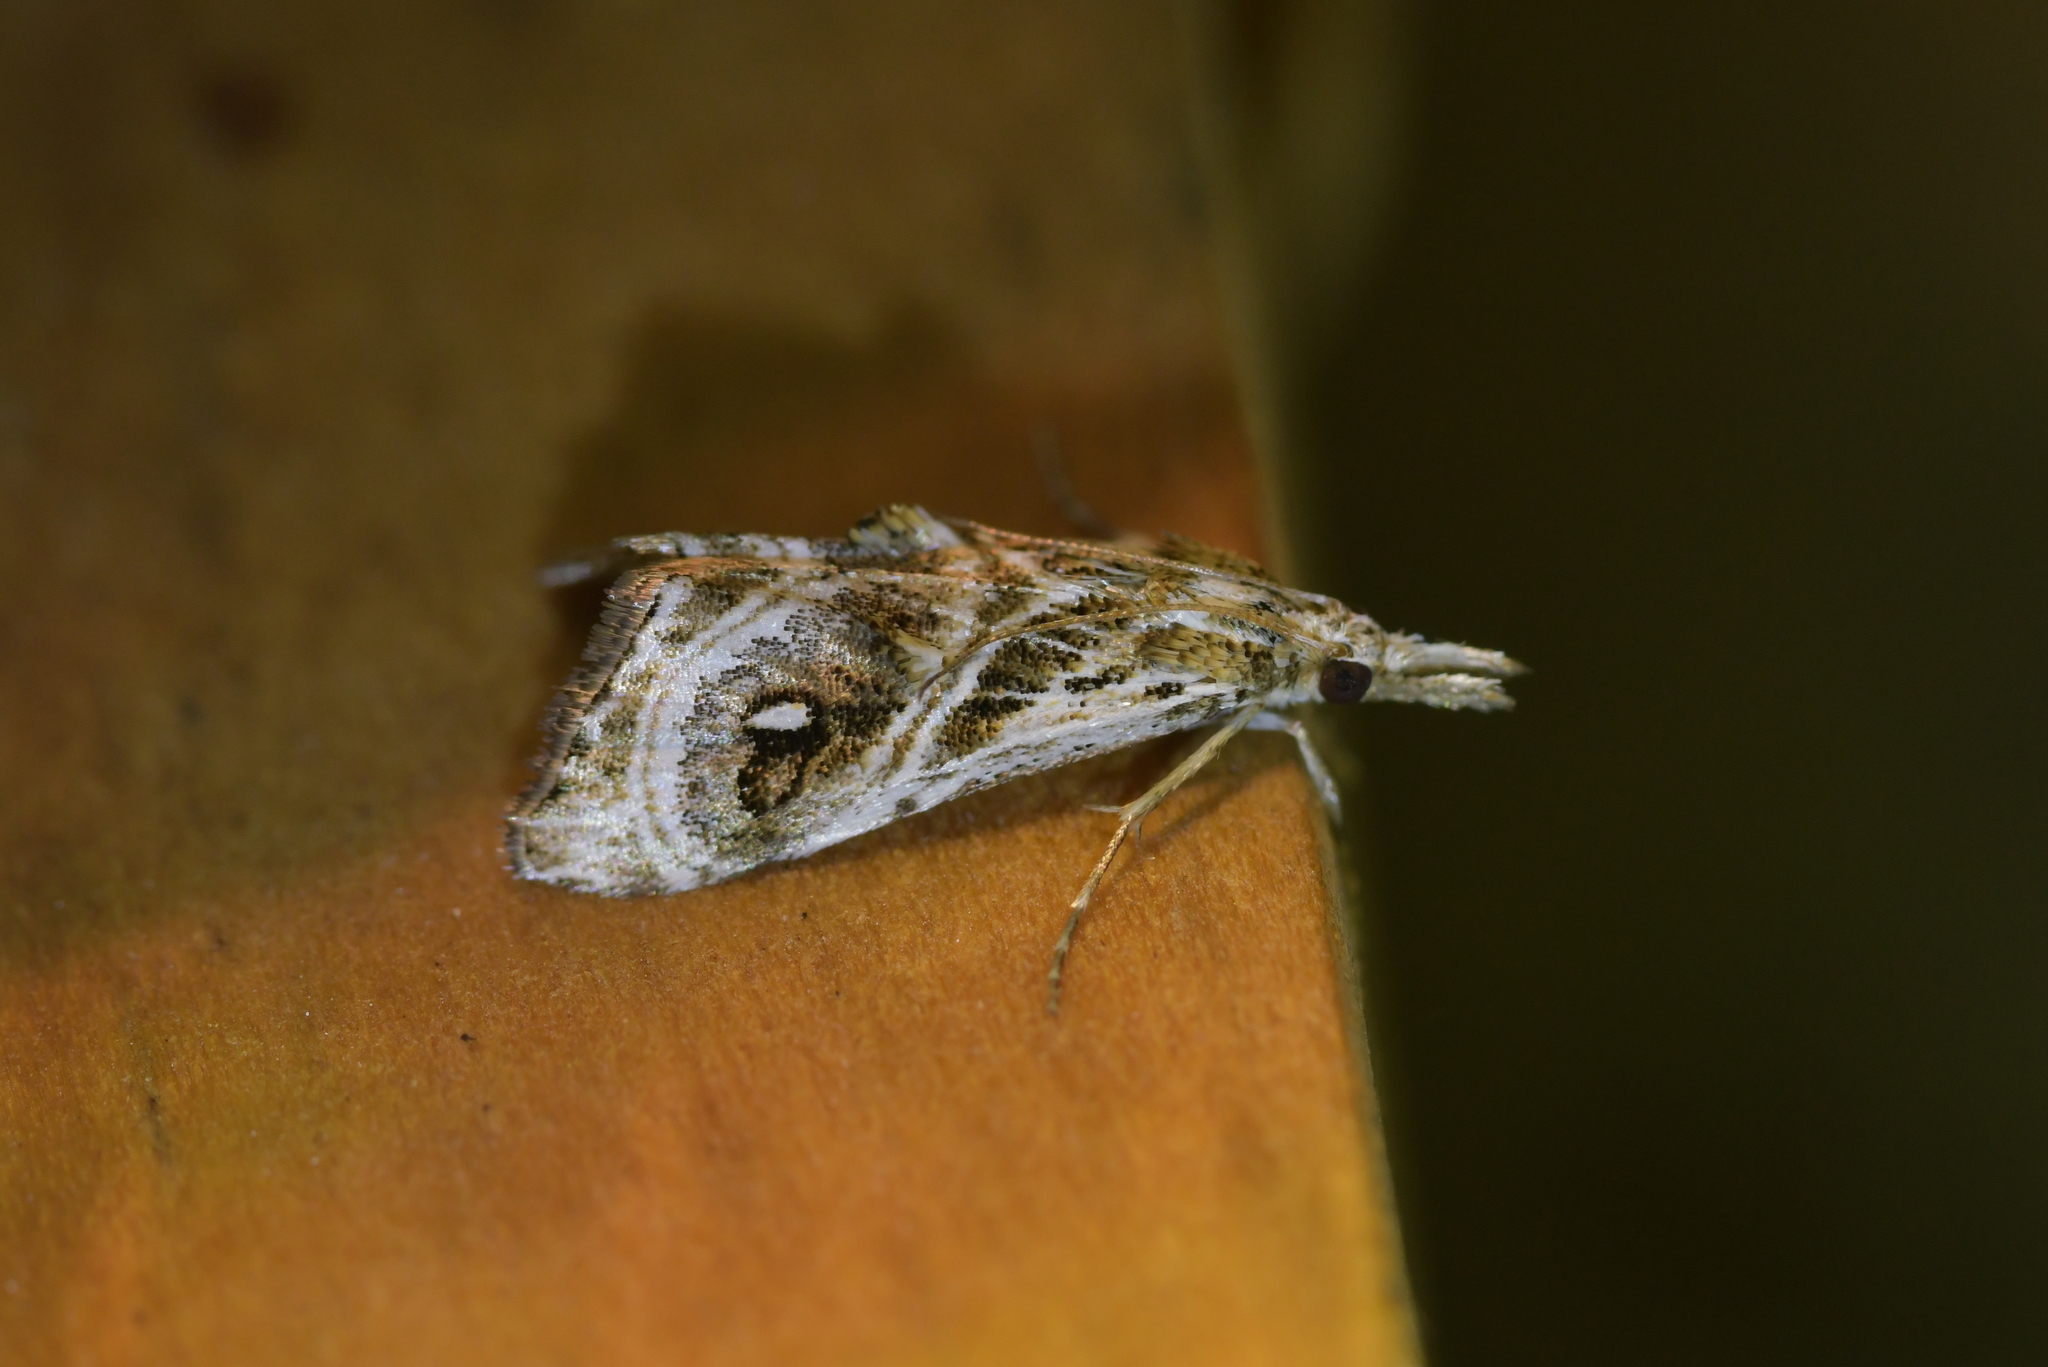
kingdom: Animalia
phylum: Arthropoda
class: Insecta
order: Lepidoptera
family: Crambidae
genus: Gadira
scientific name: Gadira acerella
